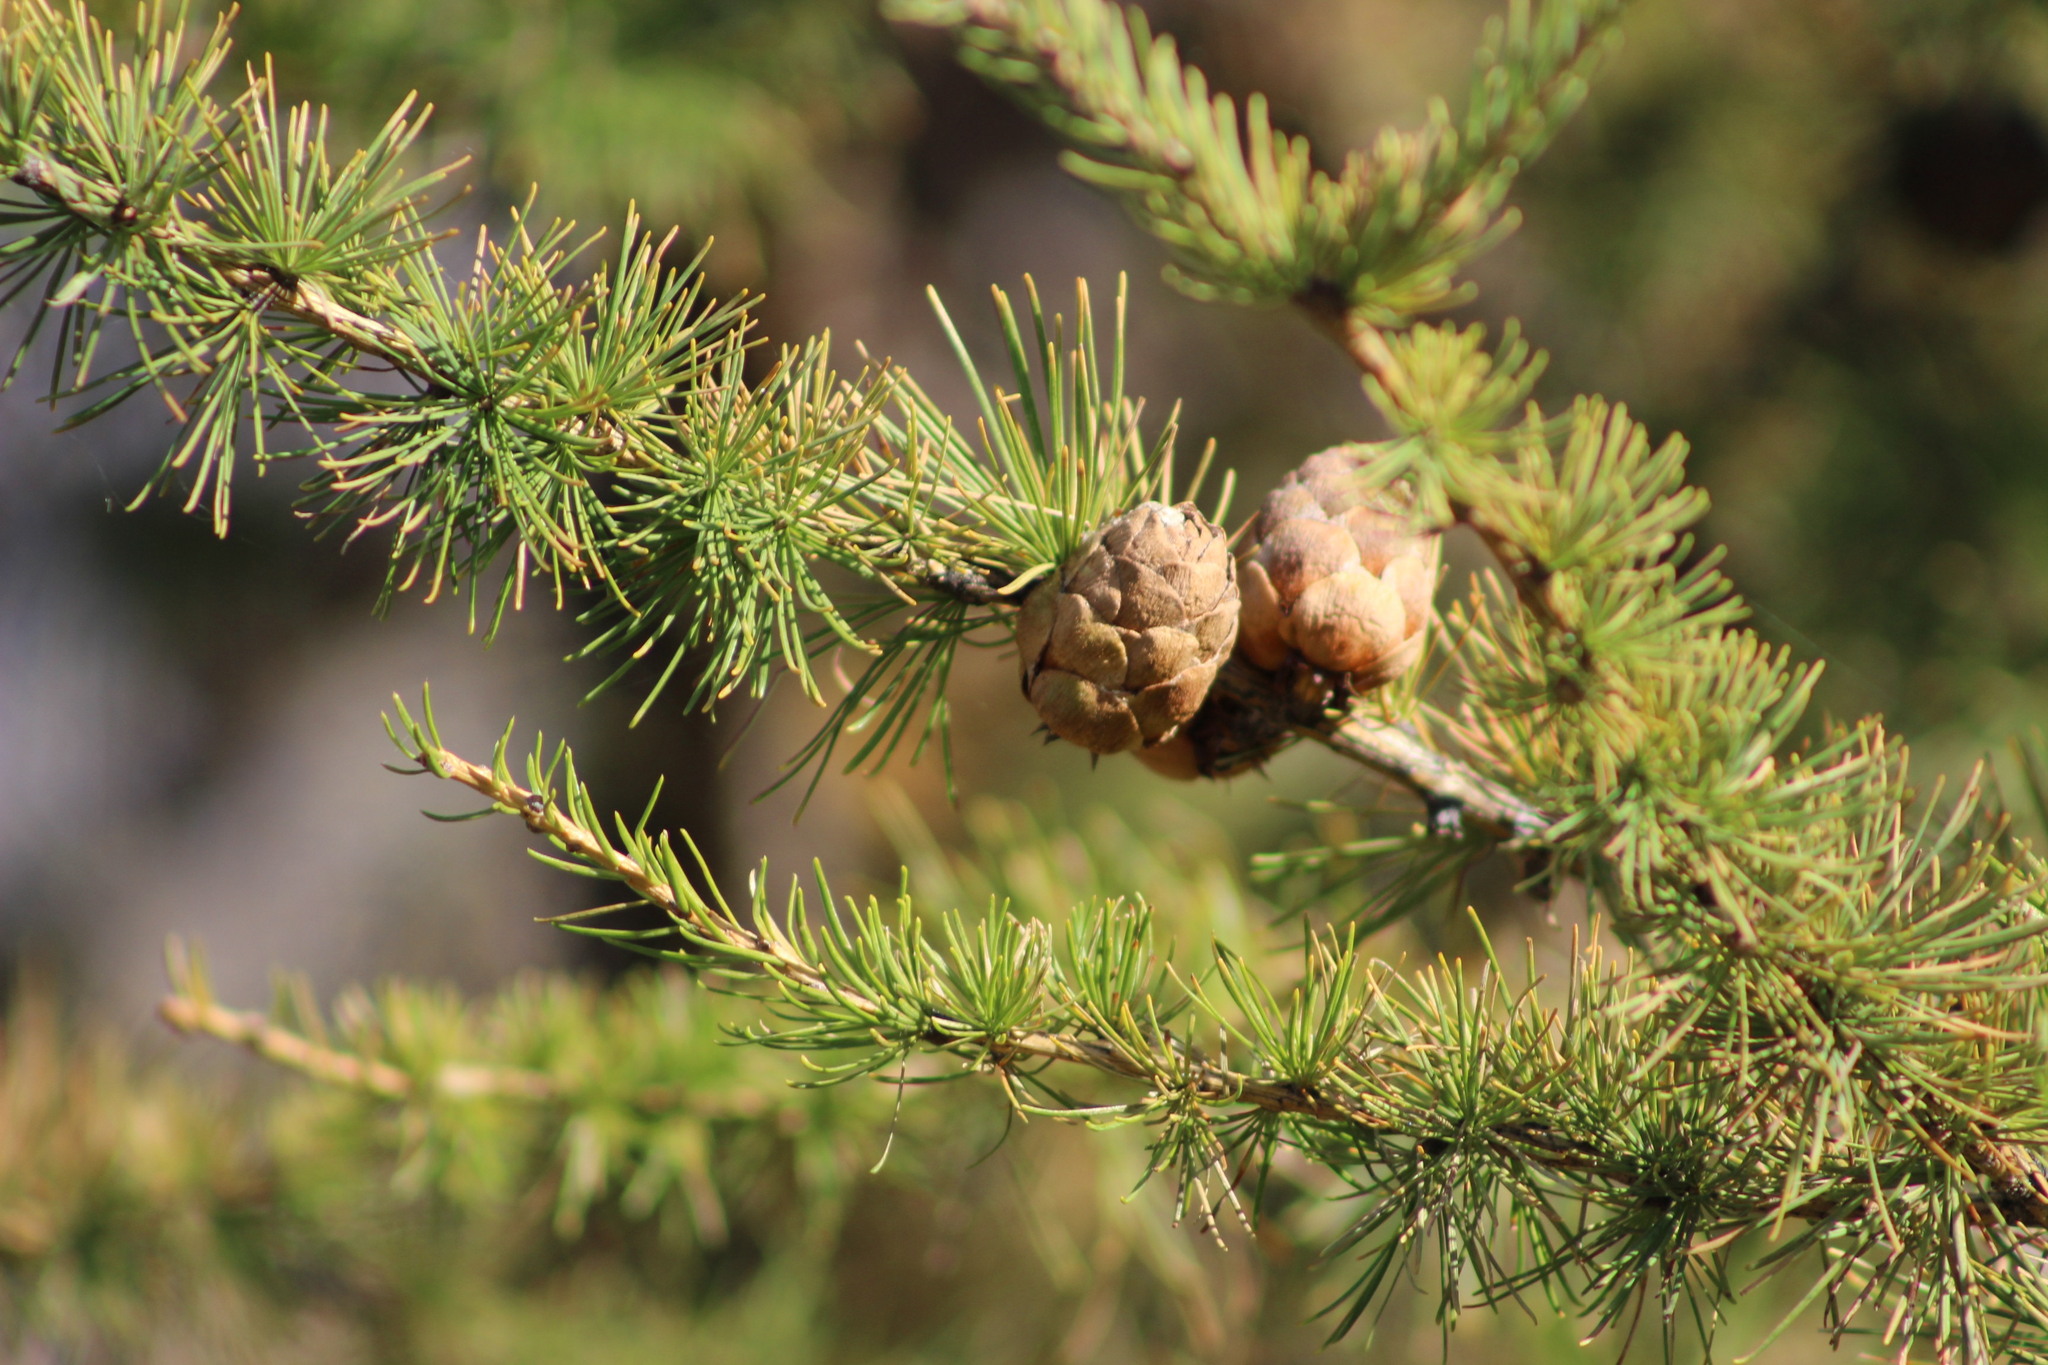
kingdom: Plantae
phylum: Tracheophyta
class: Pinopsida
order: Pinales
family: Pinaceae
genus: Larix
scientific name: Larix sibirica
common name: Siberian larch
